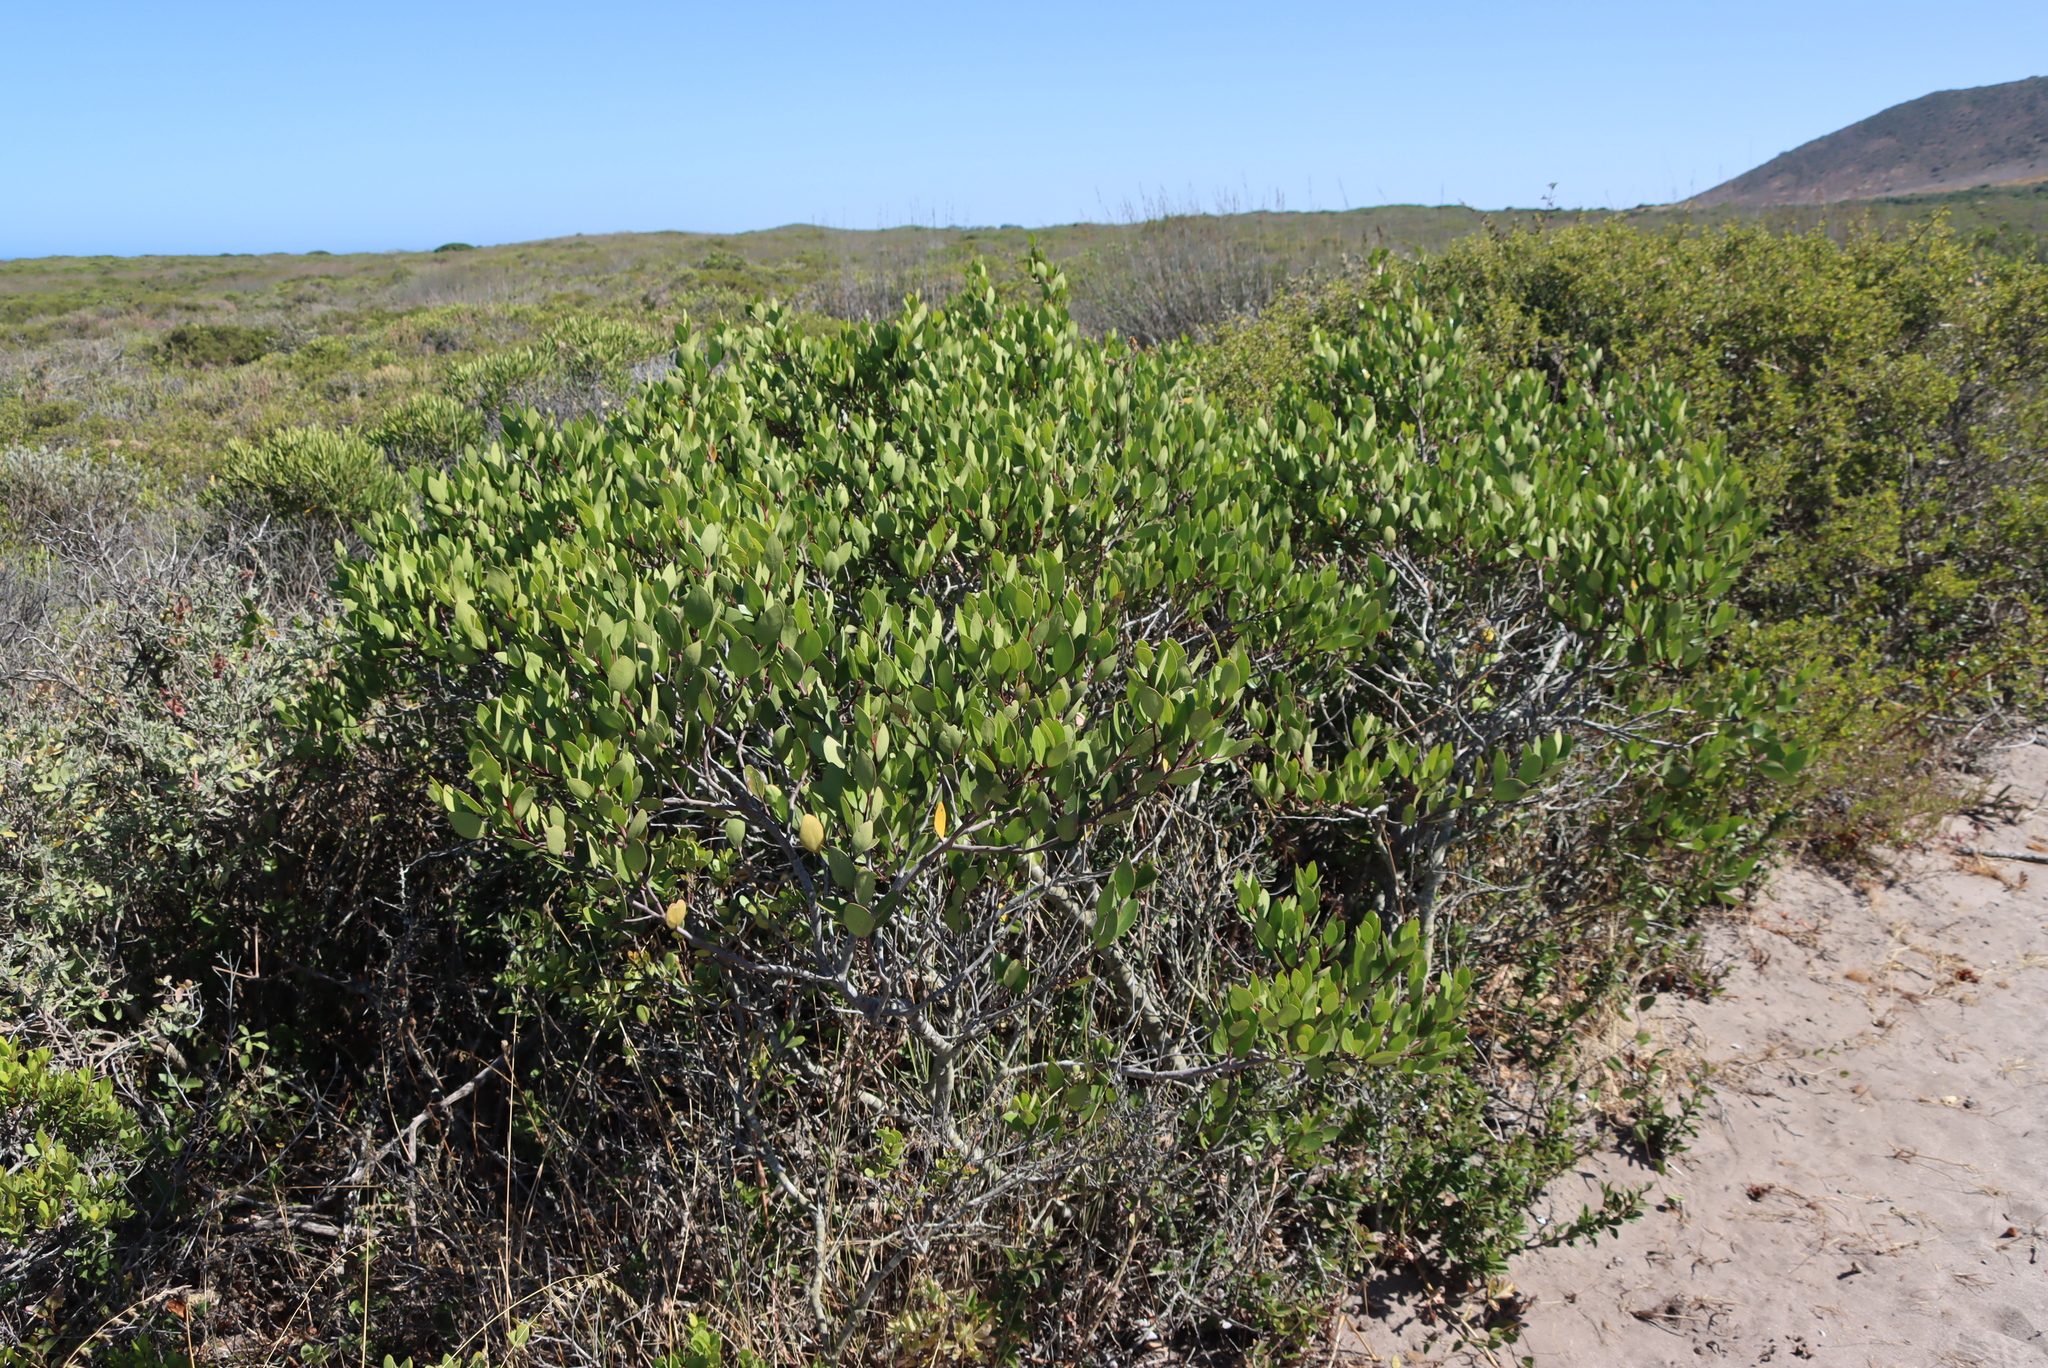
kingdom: Plantae
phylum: Tracheophyta
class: Magnoliopsida
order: Celastrales
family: Celastraceae
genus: Pterocelastrus
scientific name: Pterocelastrus tricuspidatus
